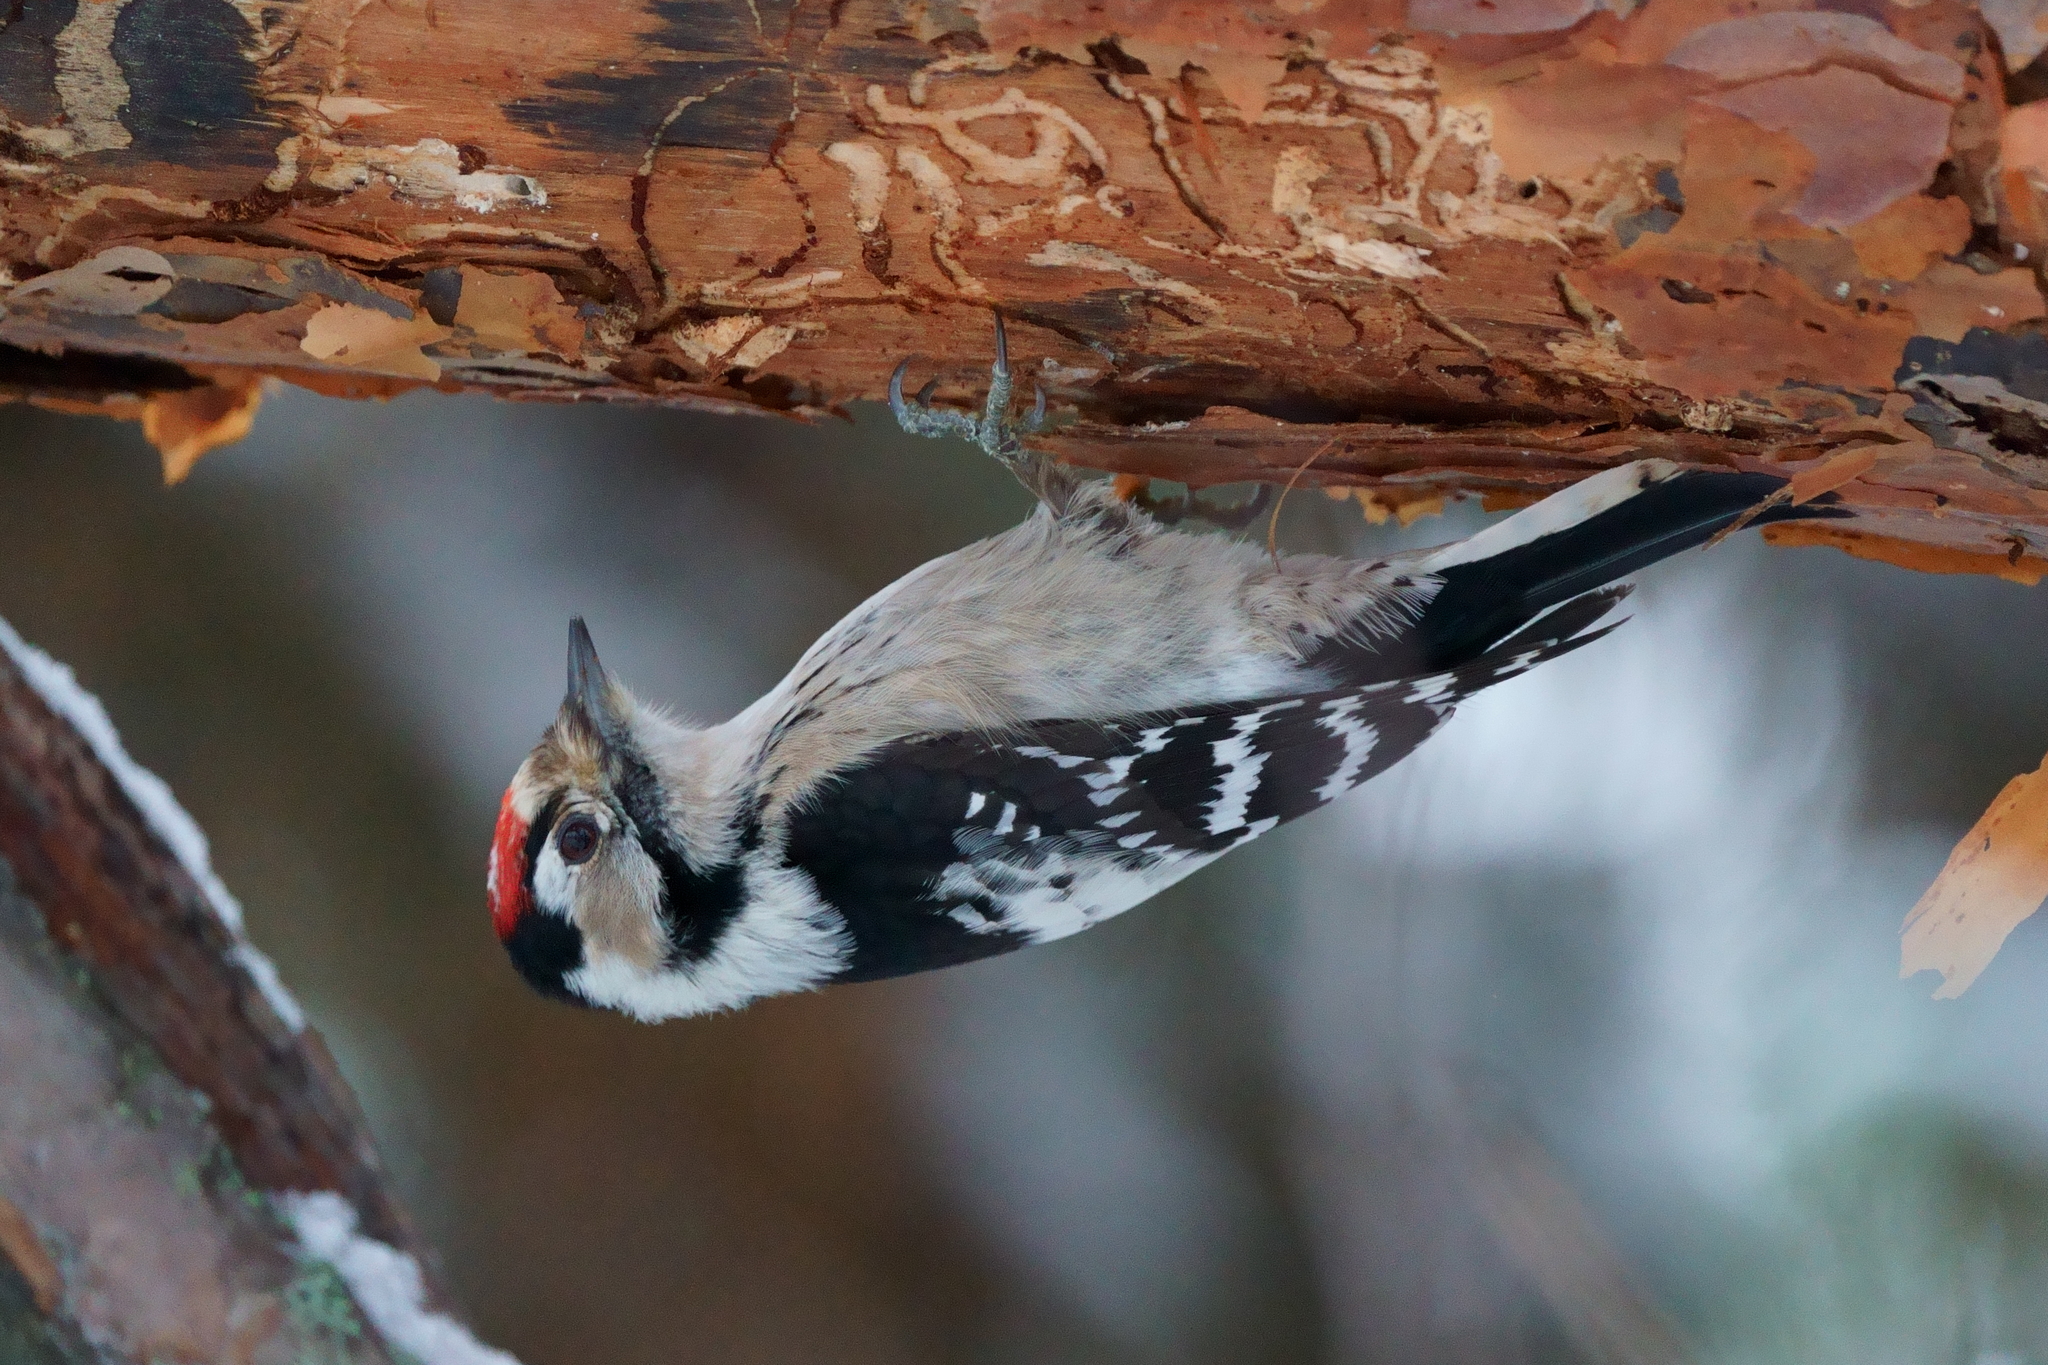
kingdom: Animalia
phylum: Chordata
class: Aves
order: Piciformes
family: Picidae
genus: Dryobates
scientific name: Dryobates minor
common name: Lesser spotted woodpecker
